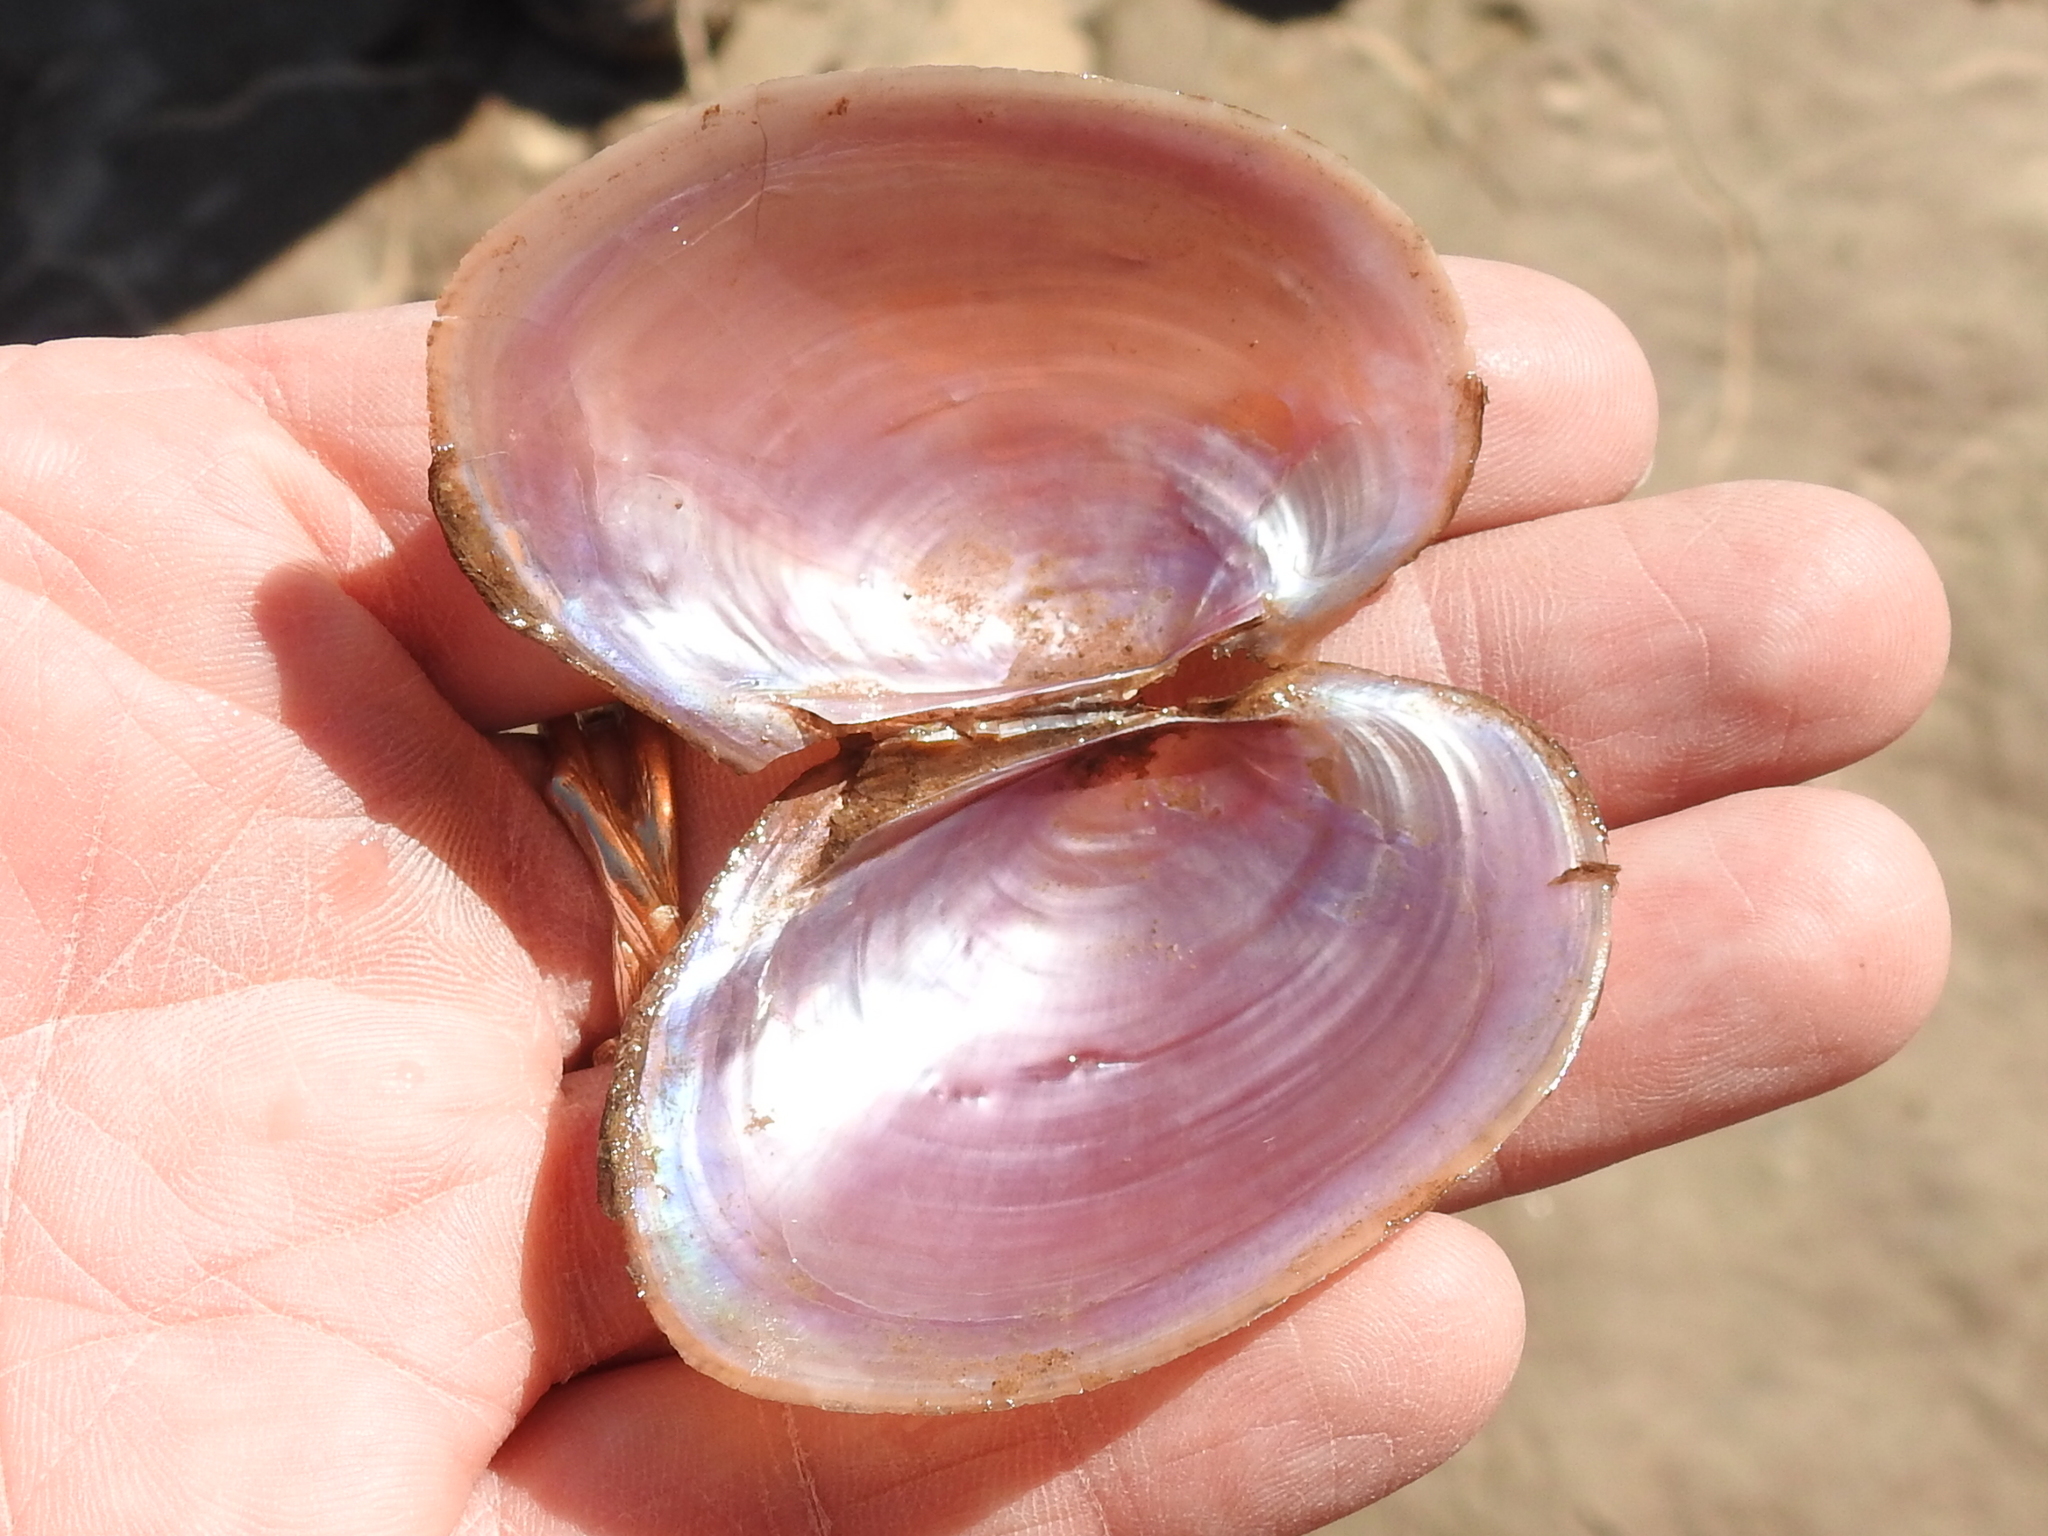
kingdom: Animalia
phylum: Mollusca
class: Bivalvia
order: Unionida
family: Unionidae
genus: Potamilus
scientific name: Potamilus ohiensis
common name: Pink papershell
